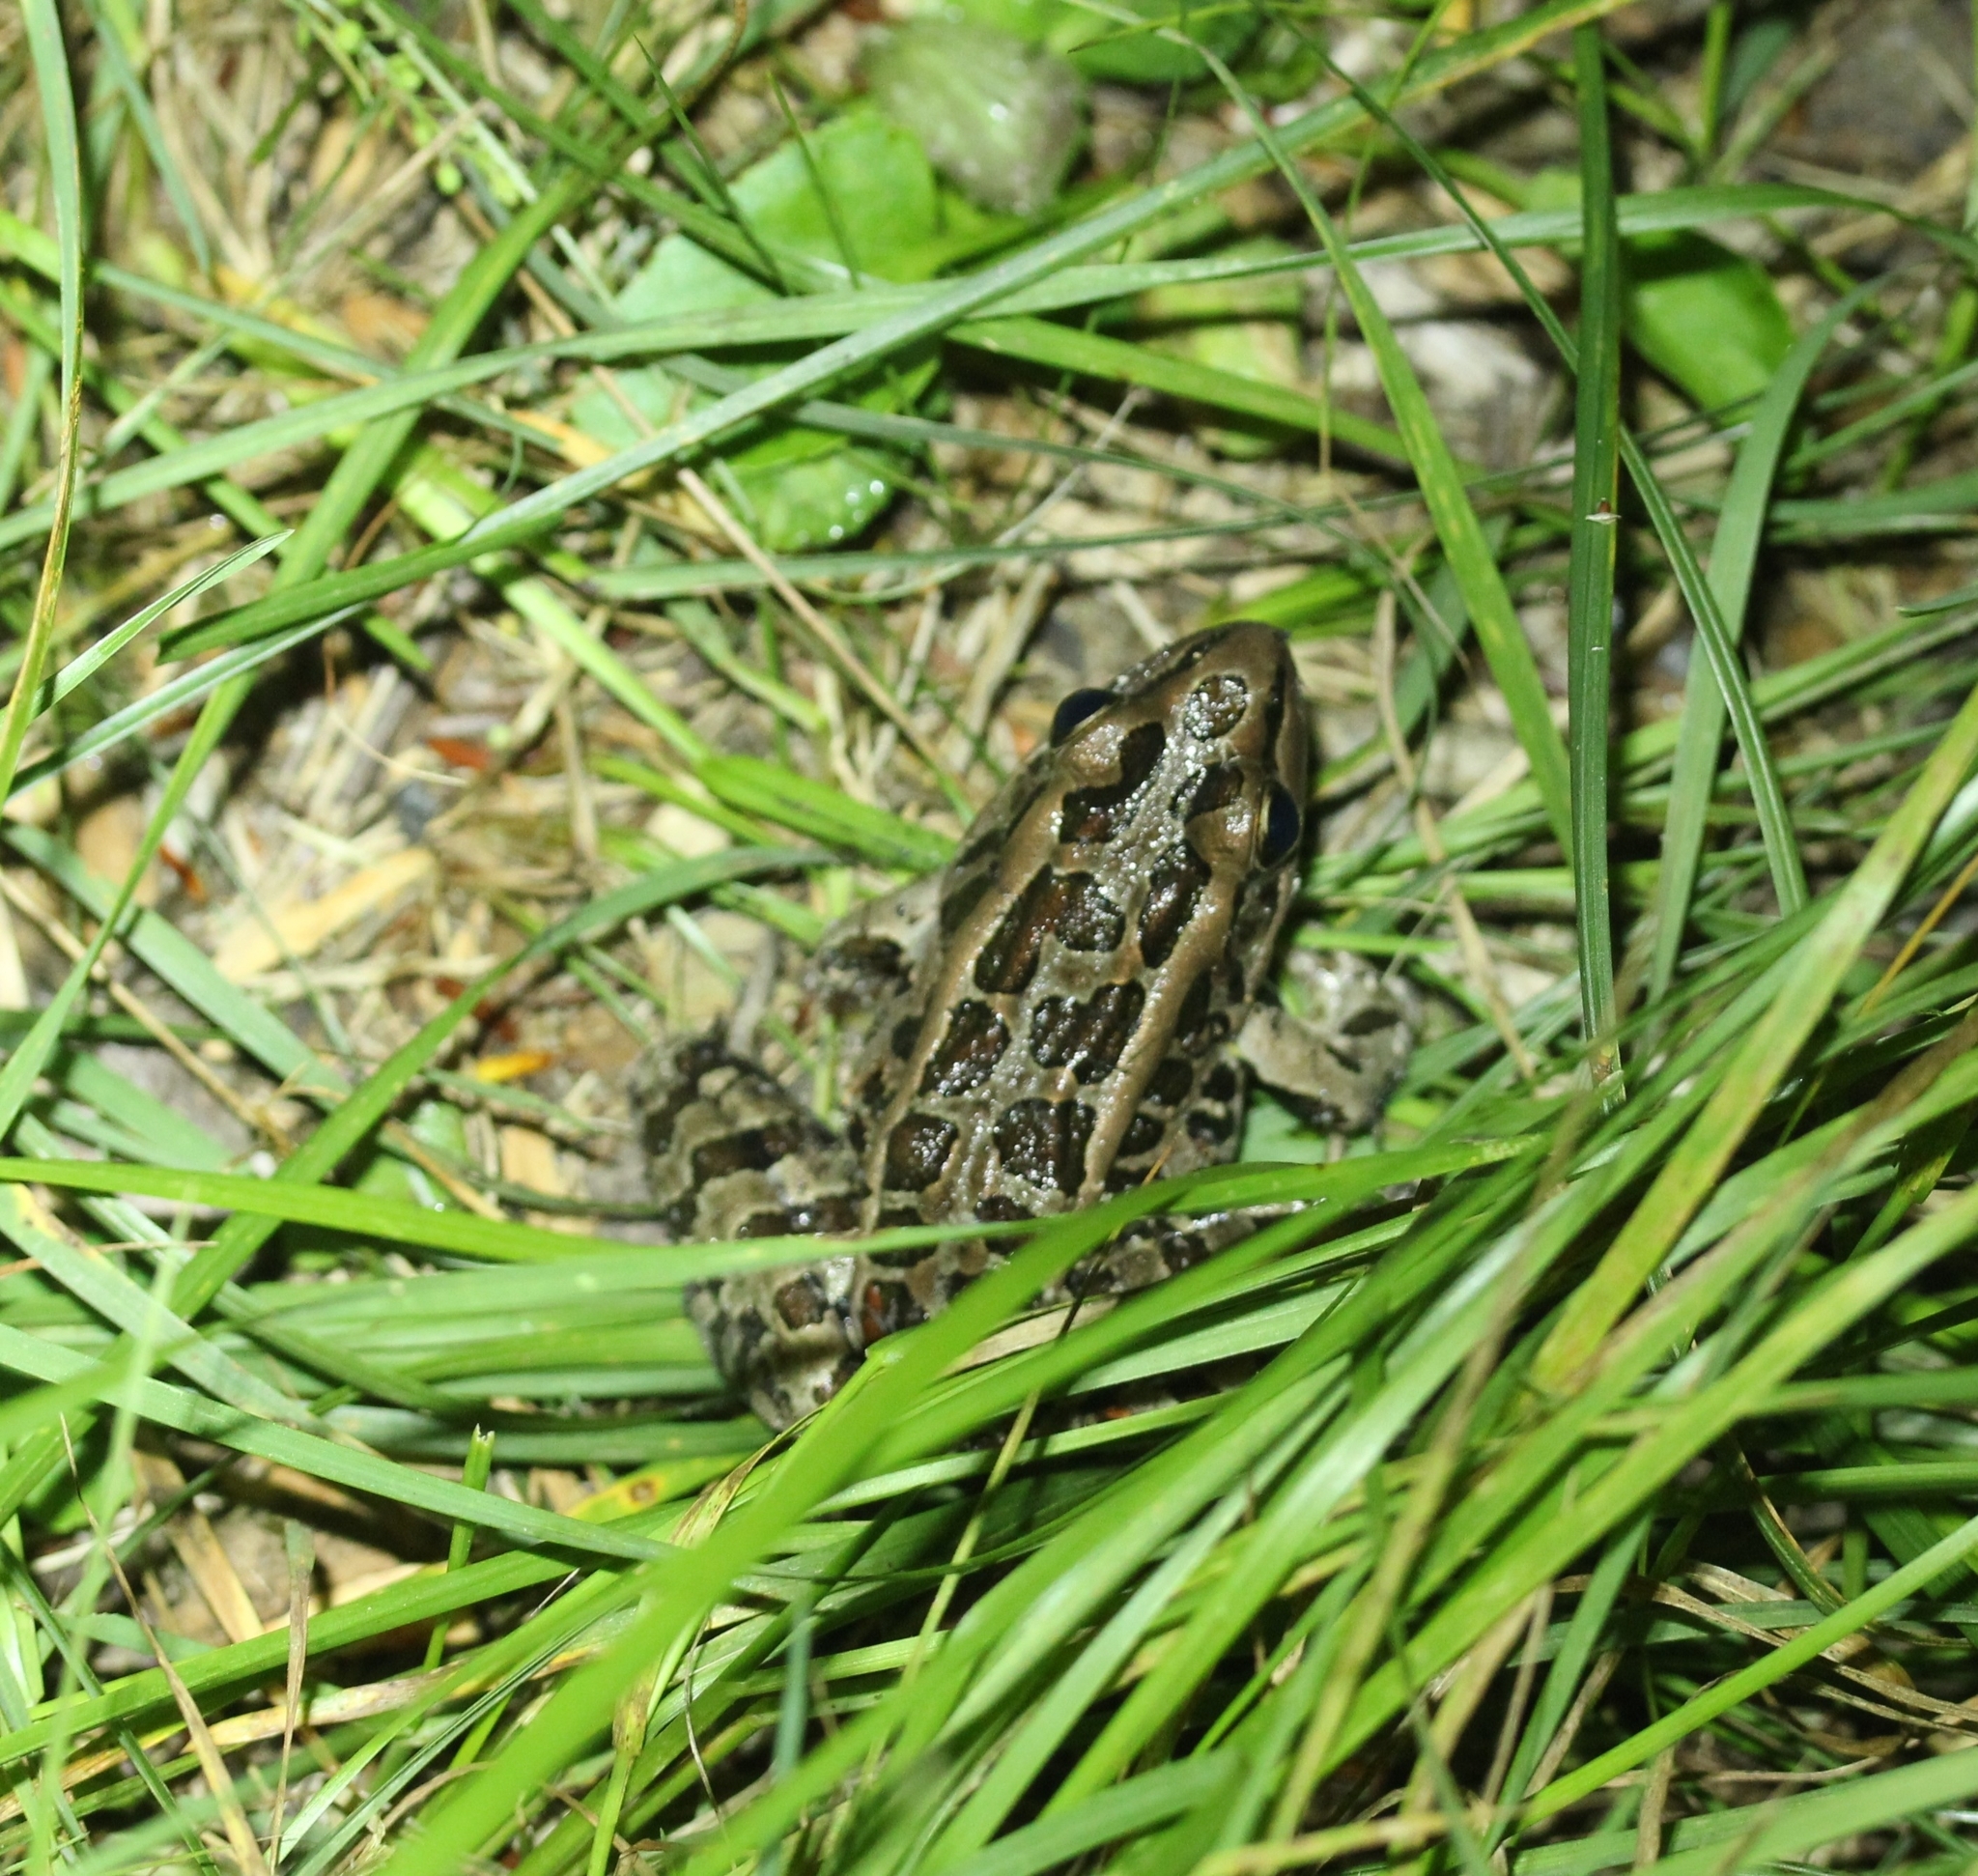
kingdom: Animalia
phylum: Chordata
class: Amphibia
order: Anura
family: Ranidae
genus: Lithobates
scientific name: Lithobates palustris
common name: Pickerel frog
